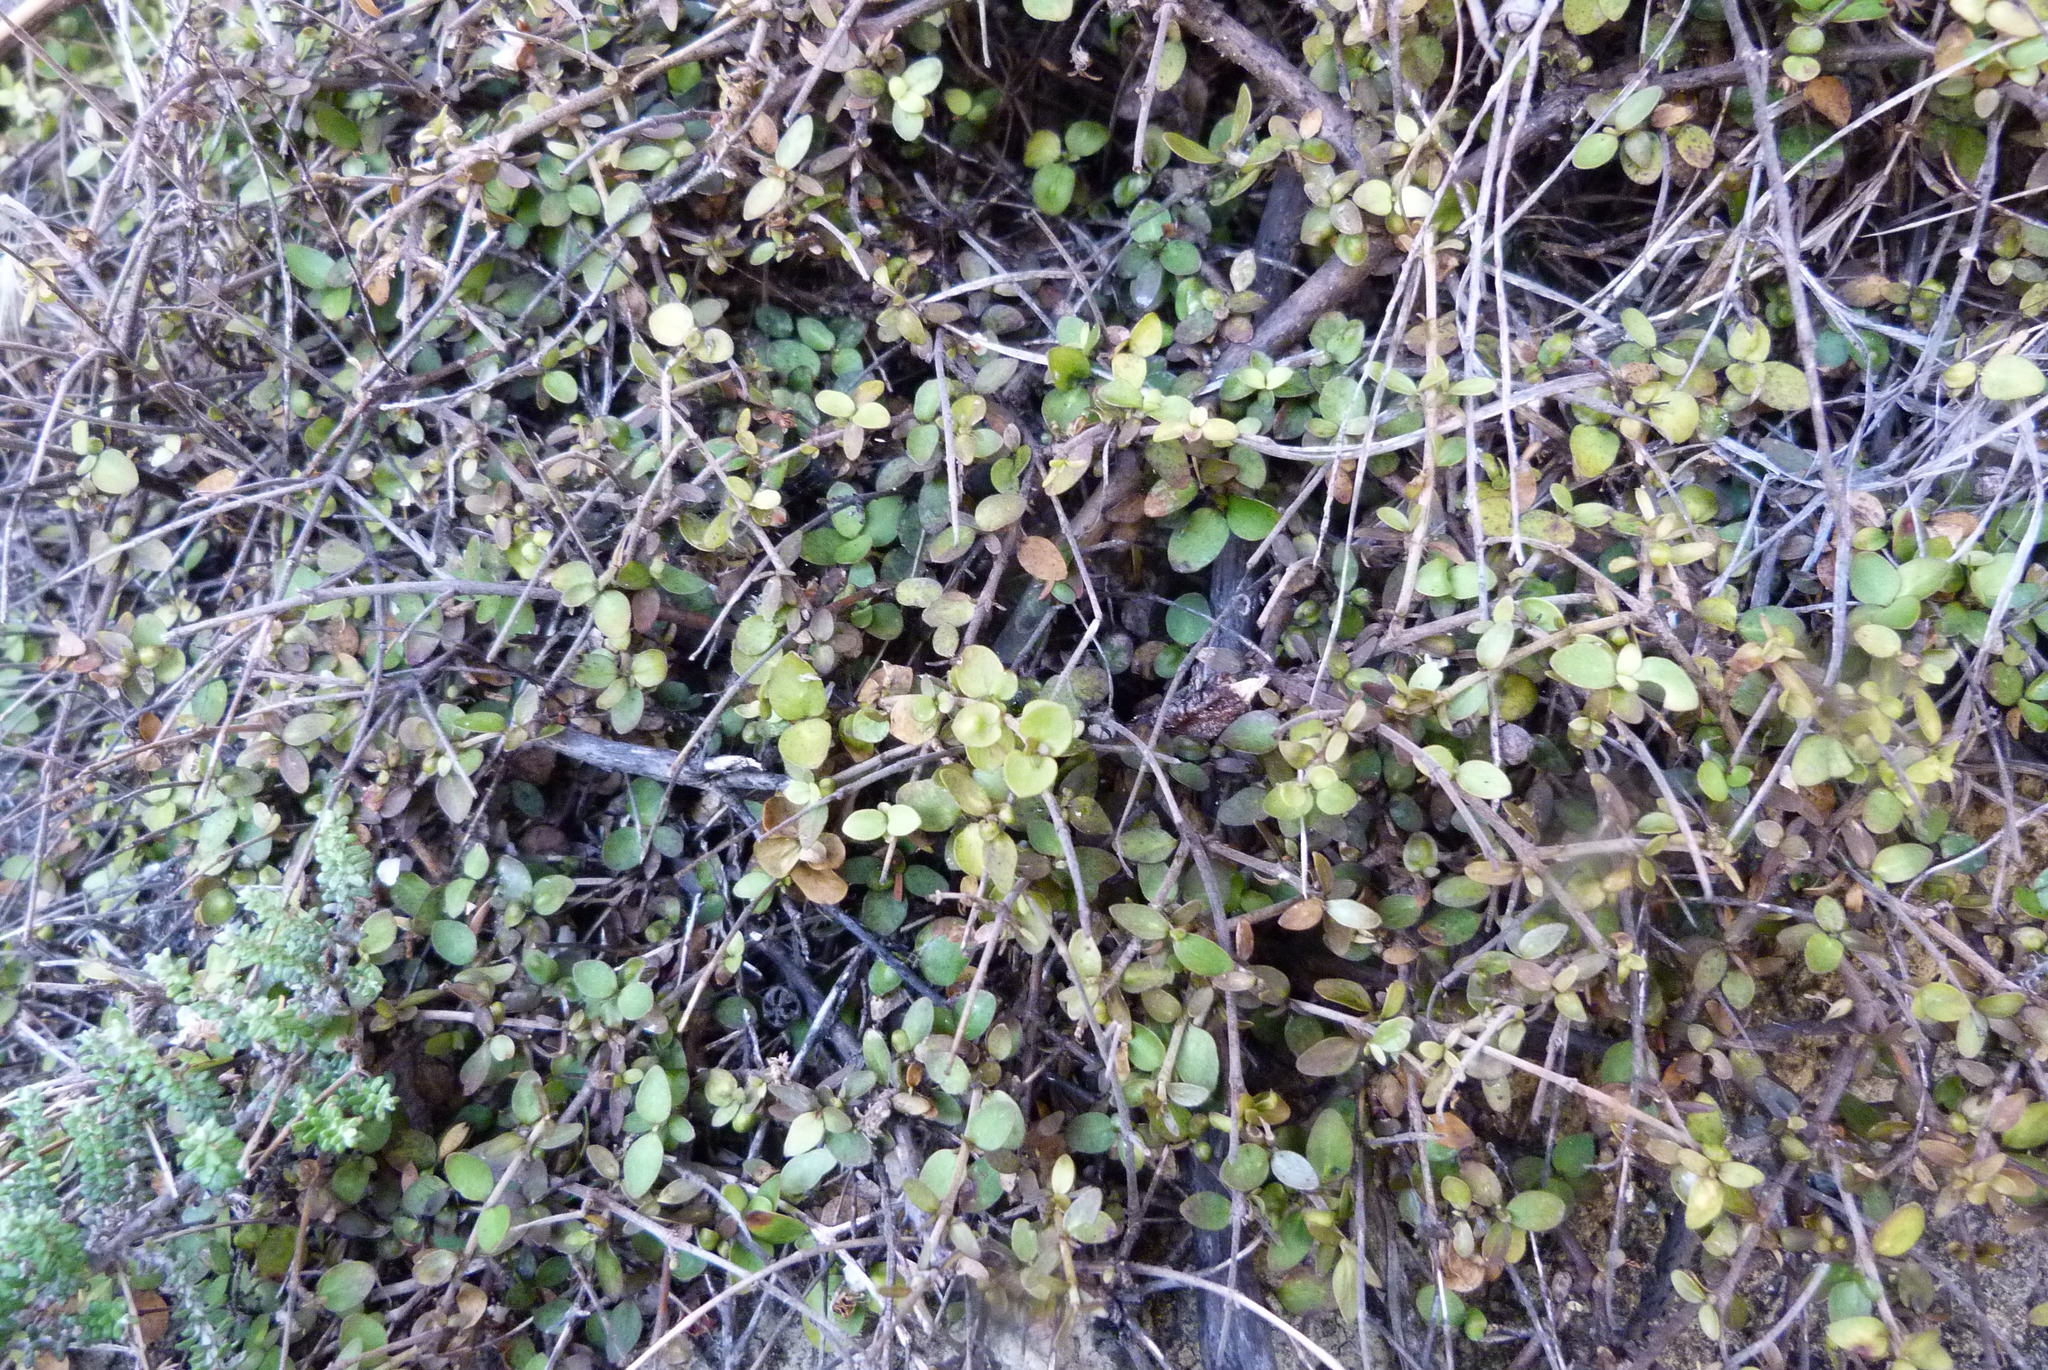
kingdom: Plantae
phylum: Tracheophyta
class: Magnoliopsida
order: Gentianales
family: Rubiaceae
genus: Coprosma
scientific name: Coprosma rhamnoides
